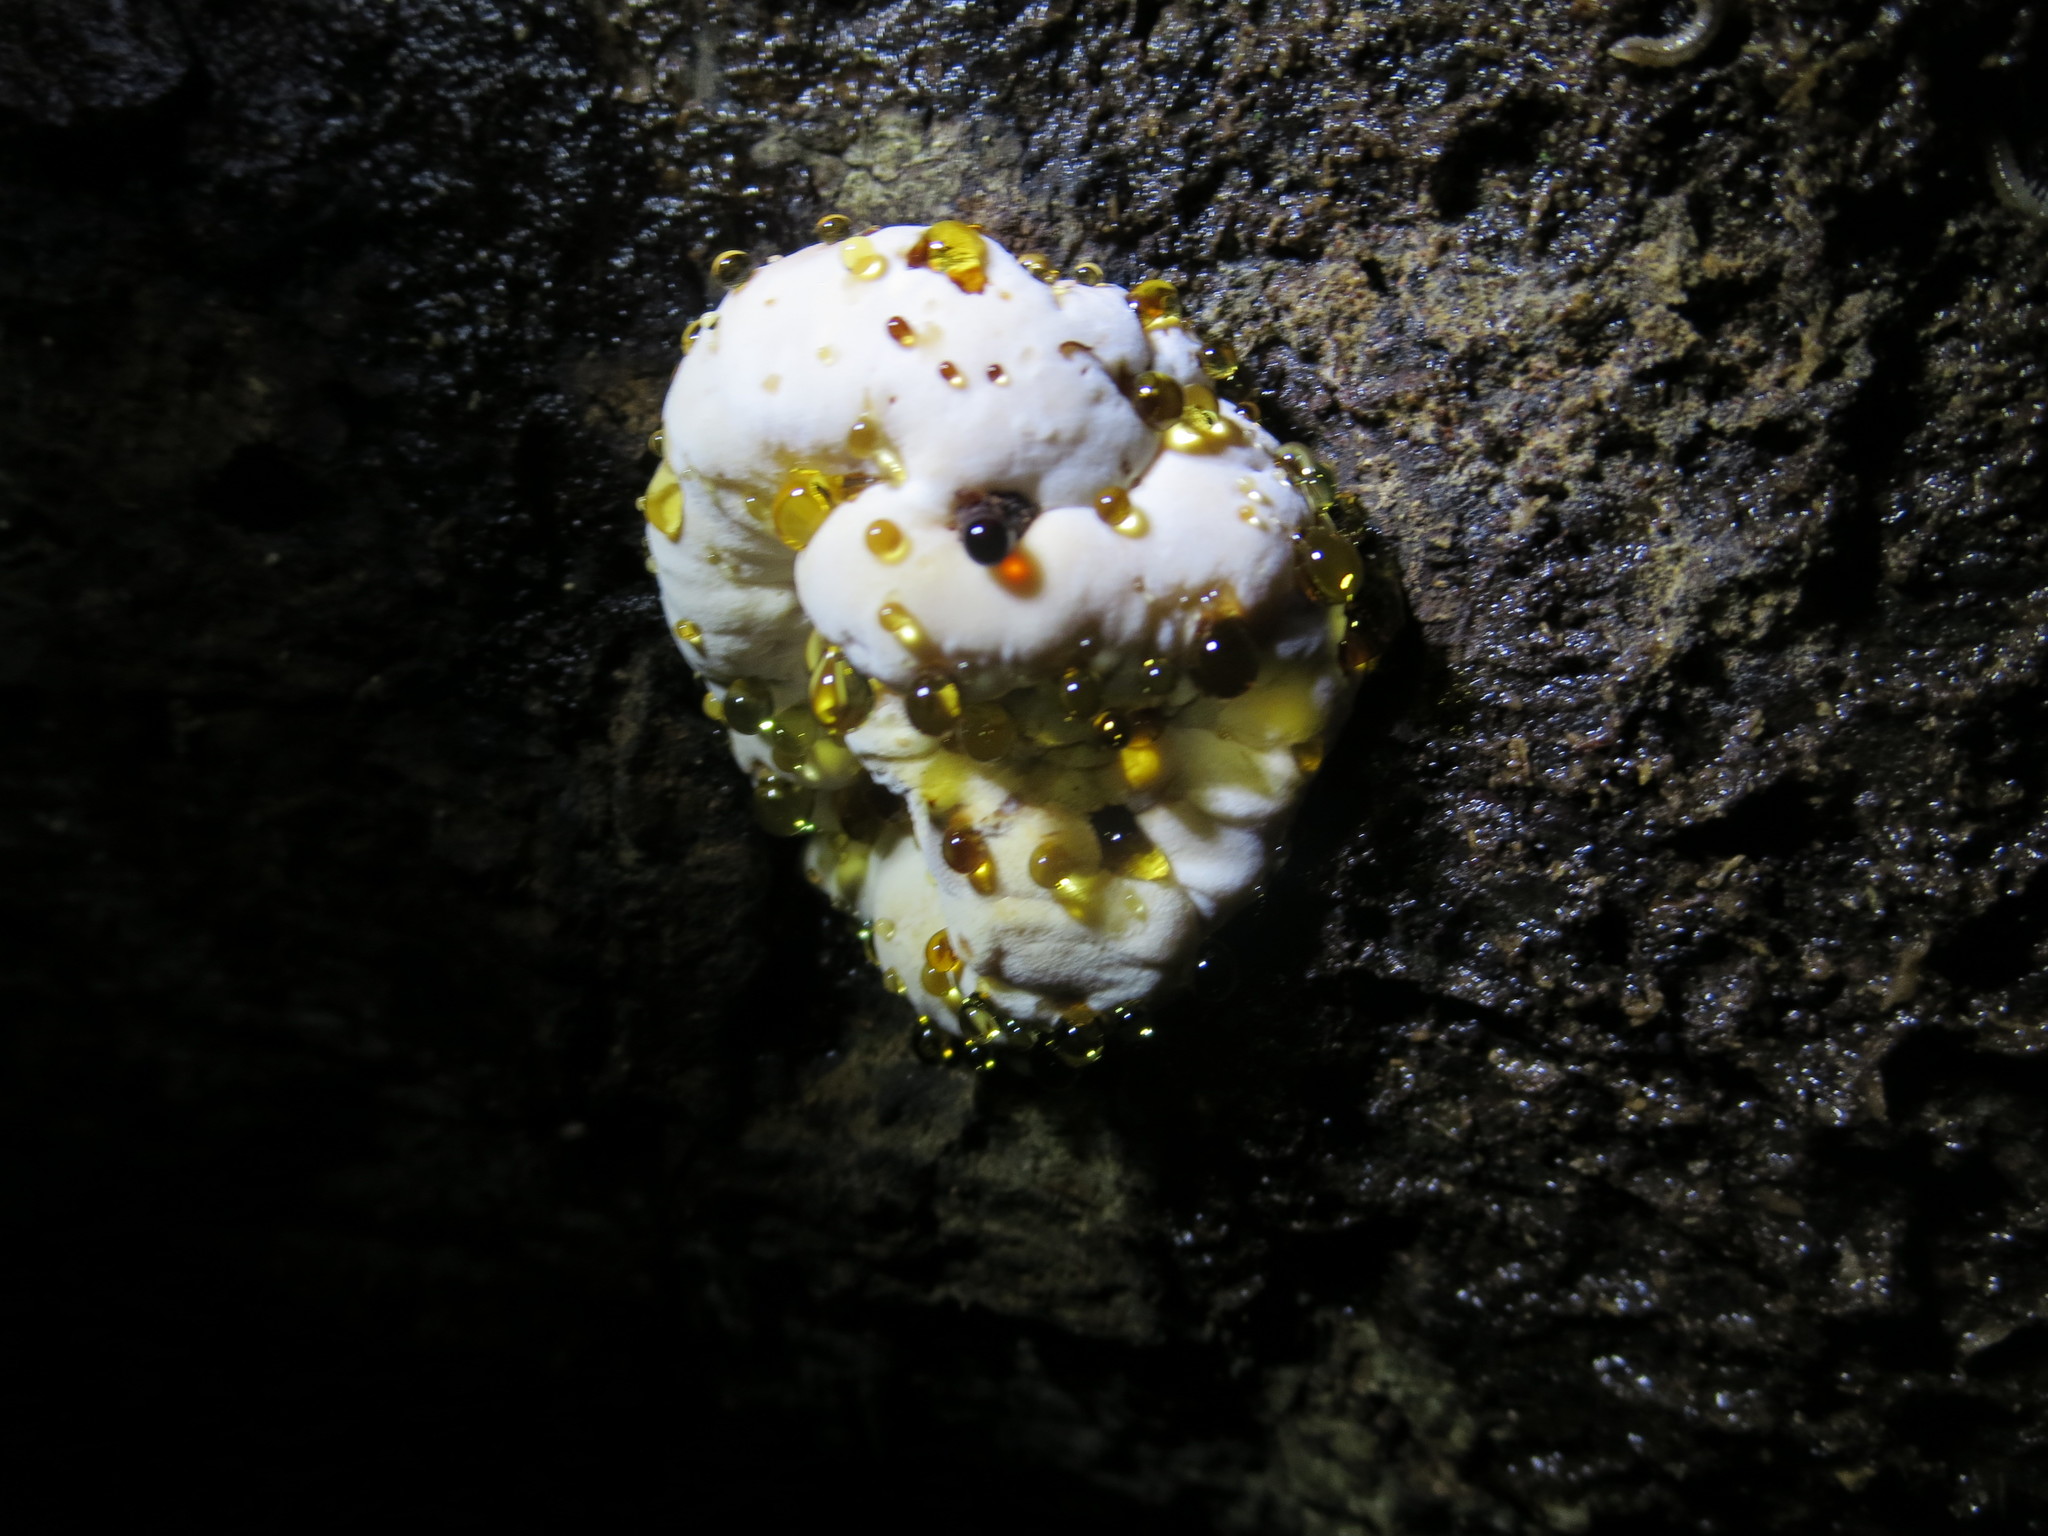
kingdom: Fungi
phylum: Basidiomycota
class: Agaricomycetes
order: Polyporales
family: Ischnodermataceae
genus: Ischnoderma
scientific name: Ischnoderma resinosum
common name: Resinous polypore
